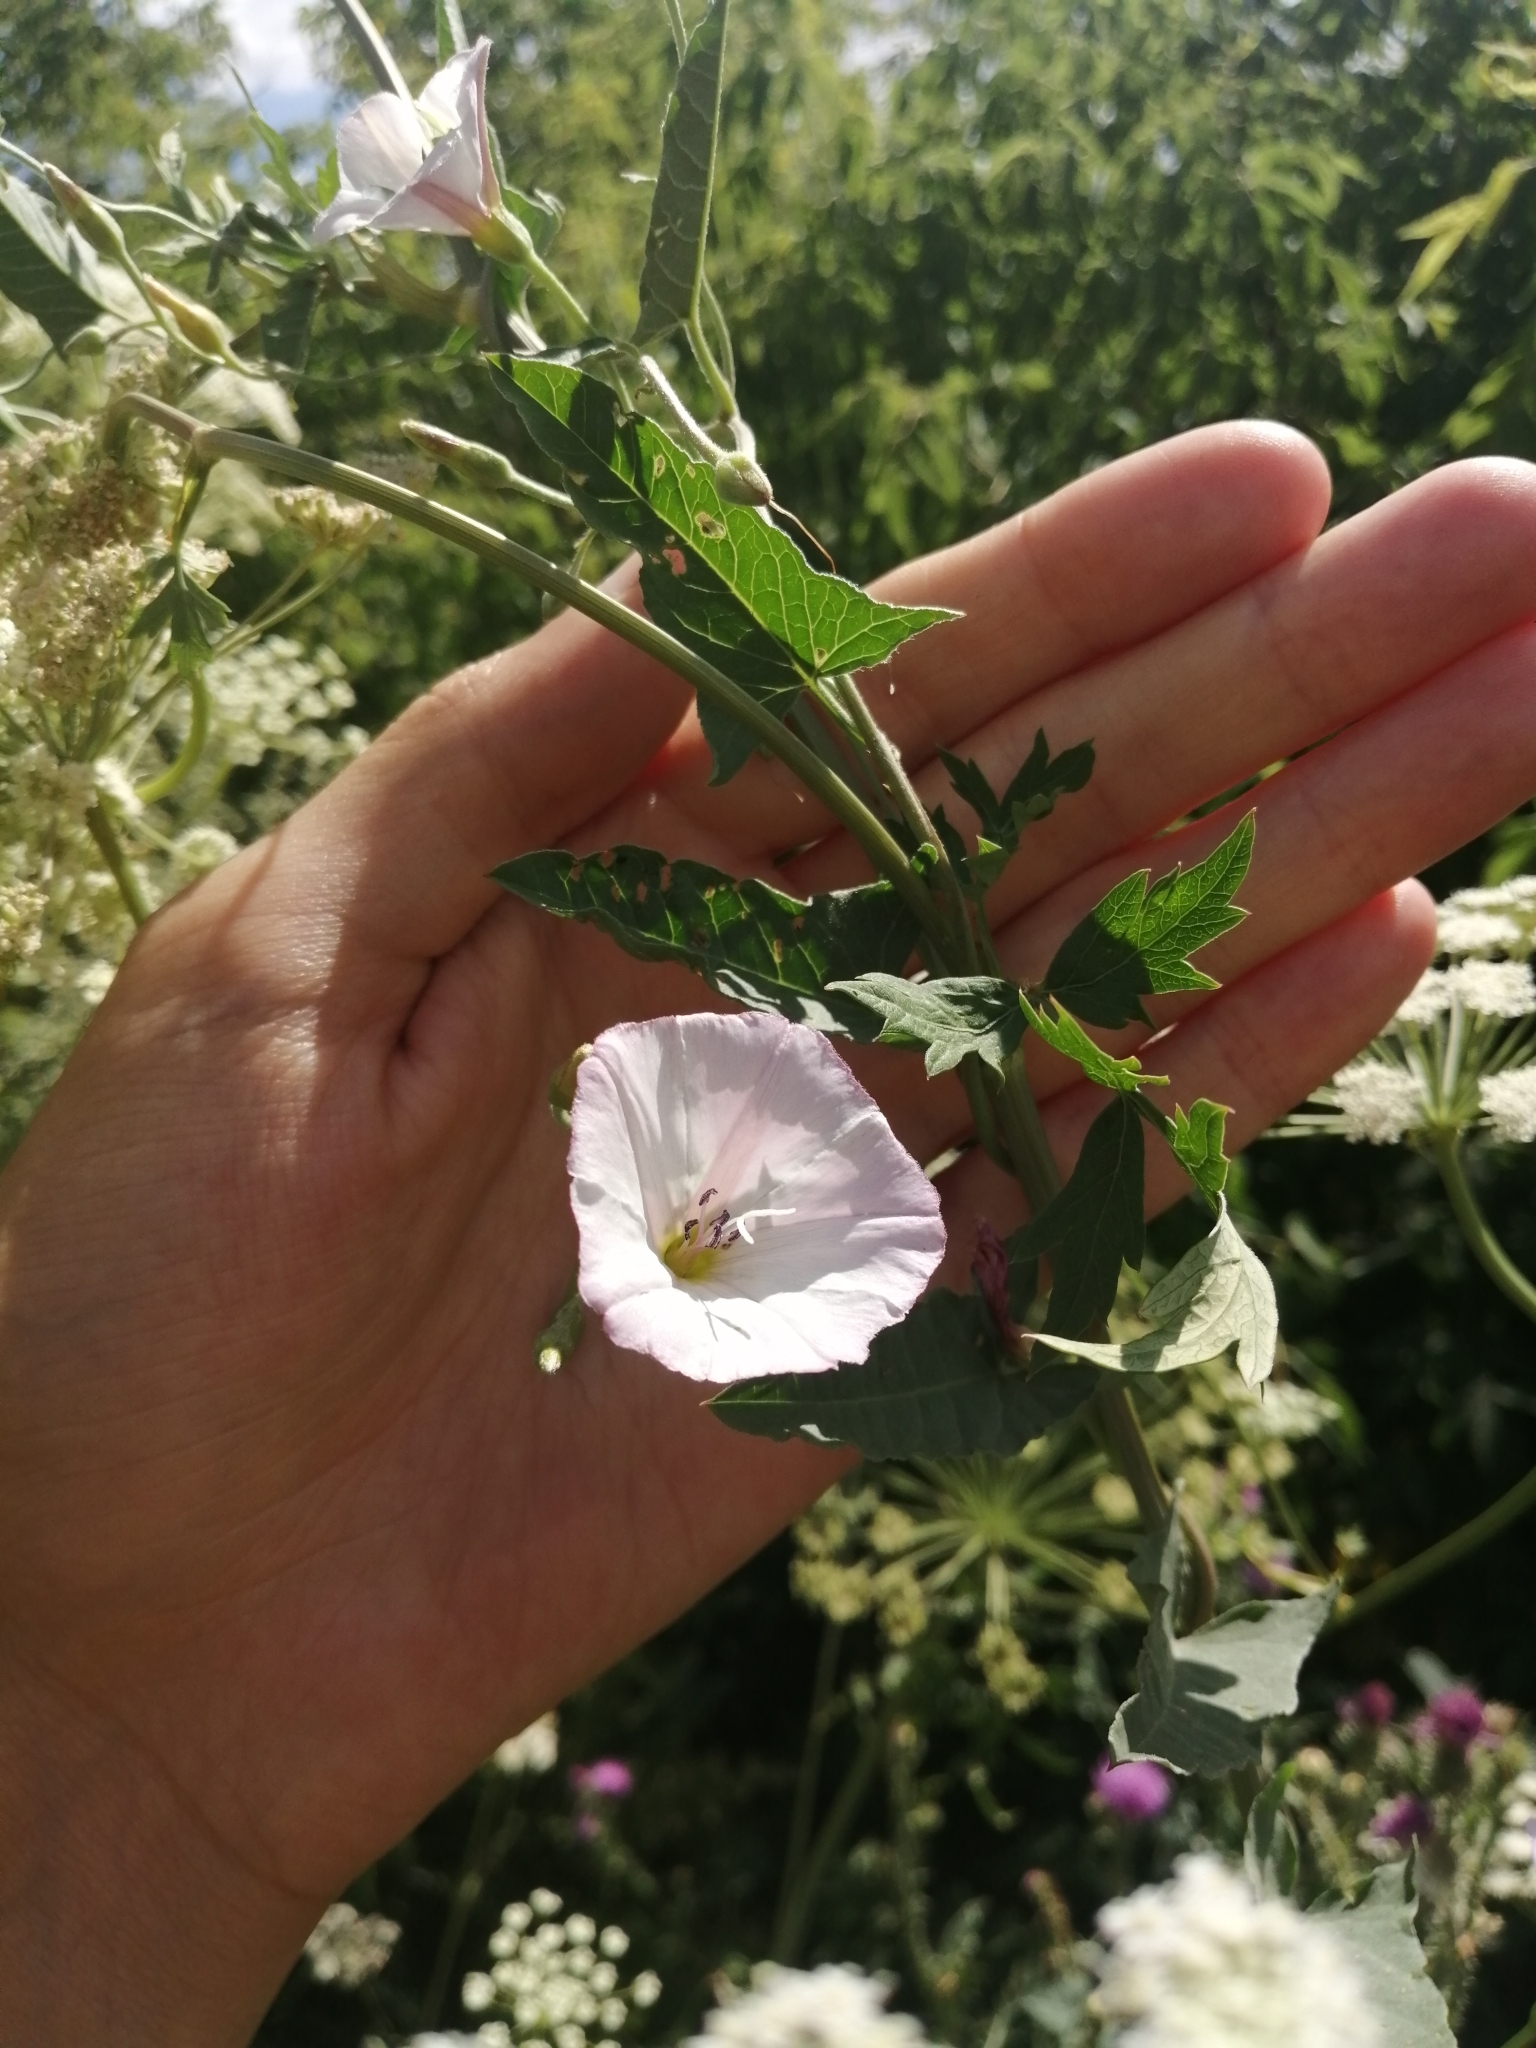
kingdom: Plantae
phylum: Tracheophyta
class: Magnoliopsida
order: Solanales
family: Convolvulaceae
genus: Convolvulus
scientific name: Convolvulus arvensis
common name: Field bindweed
